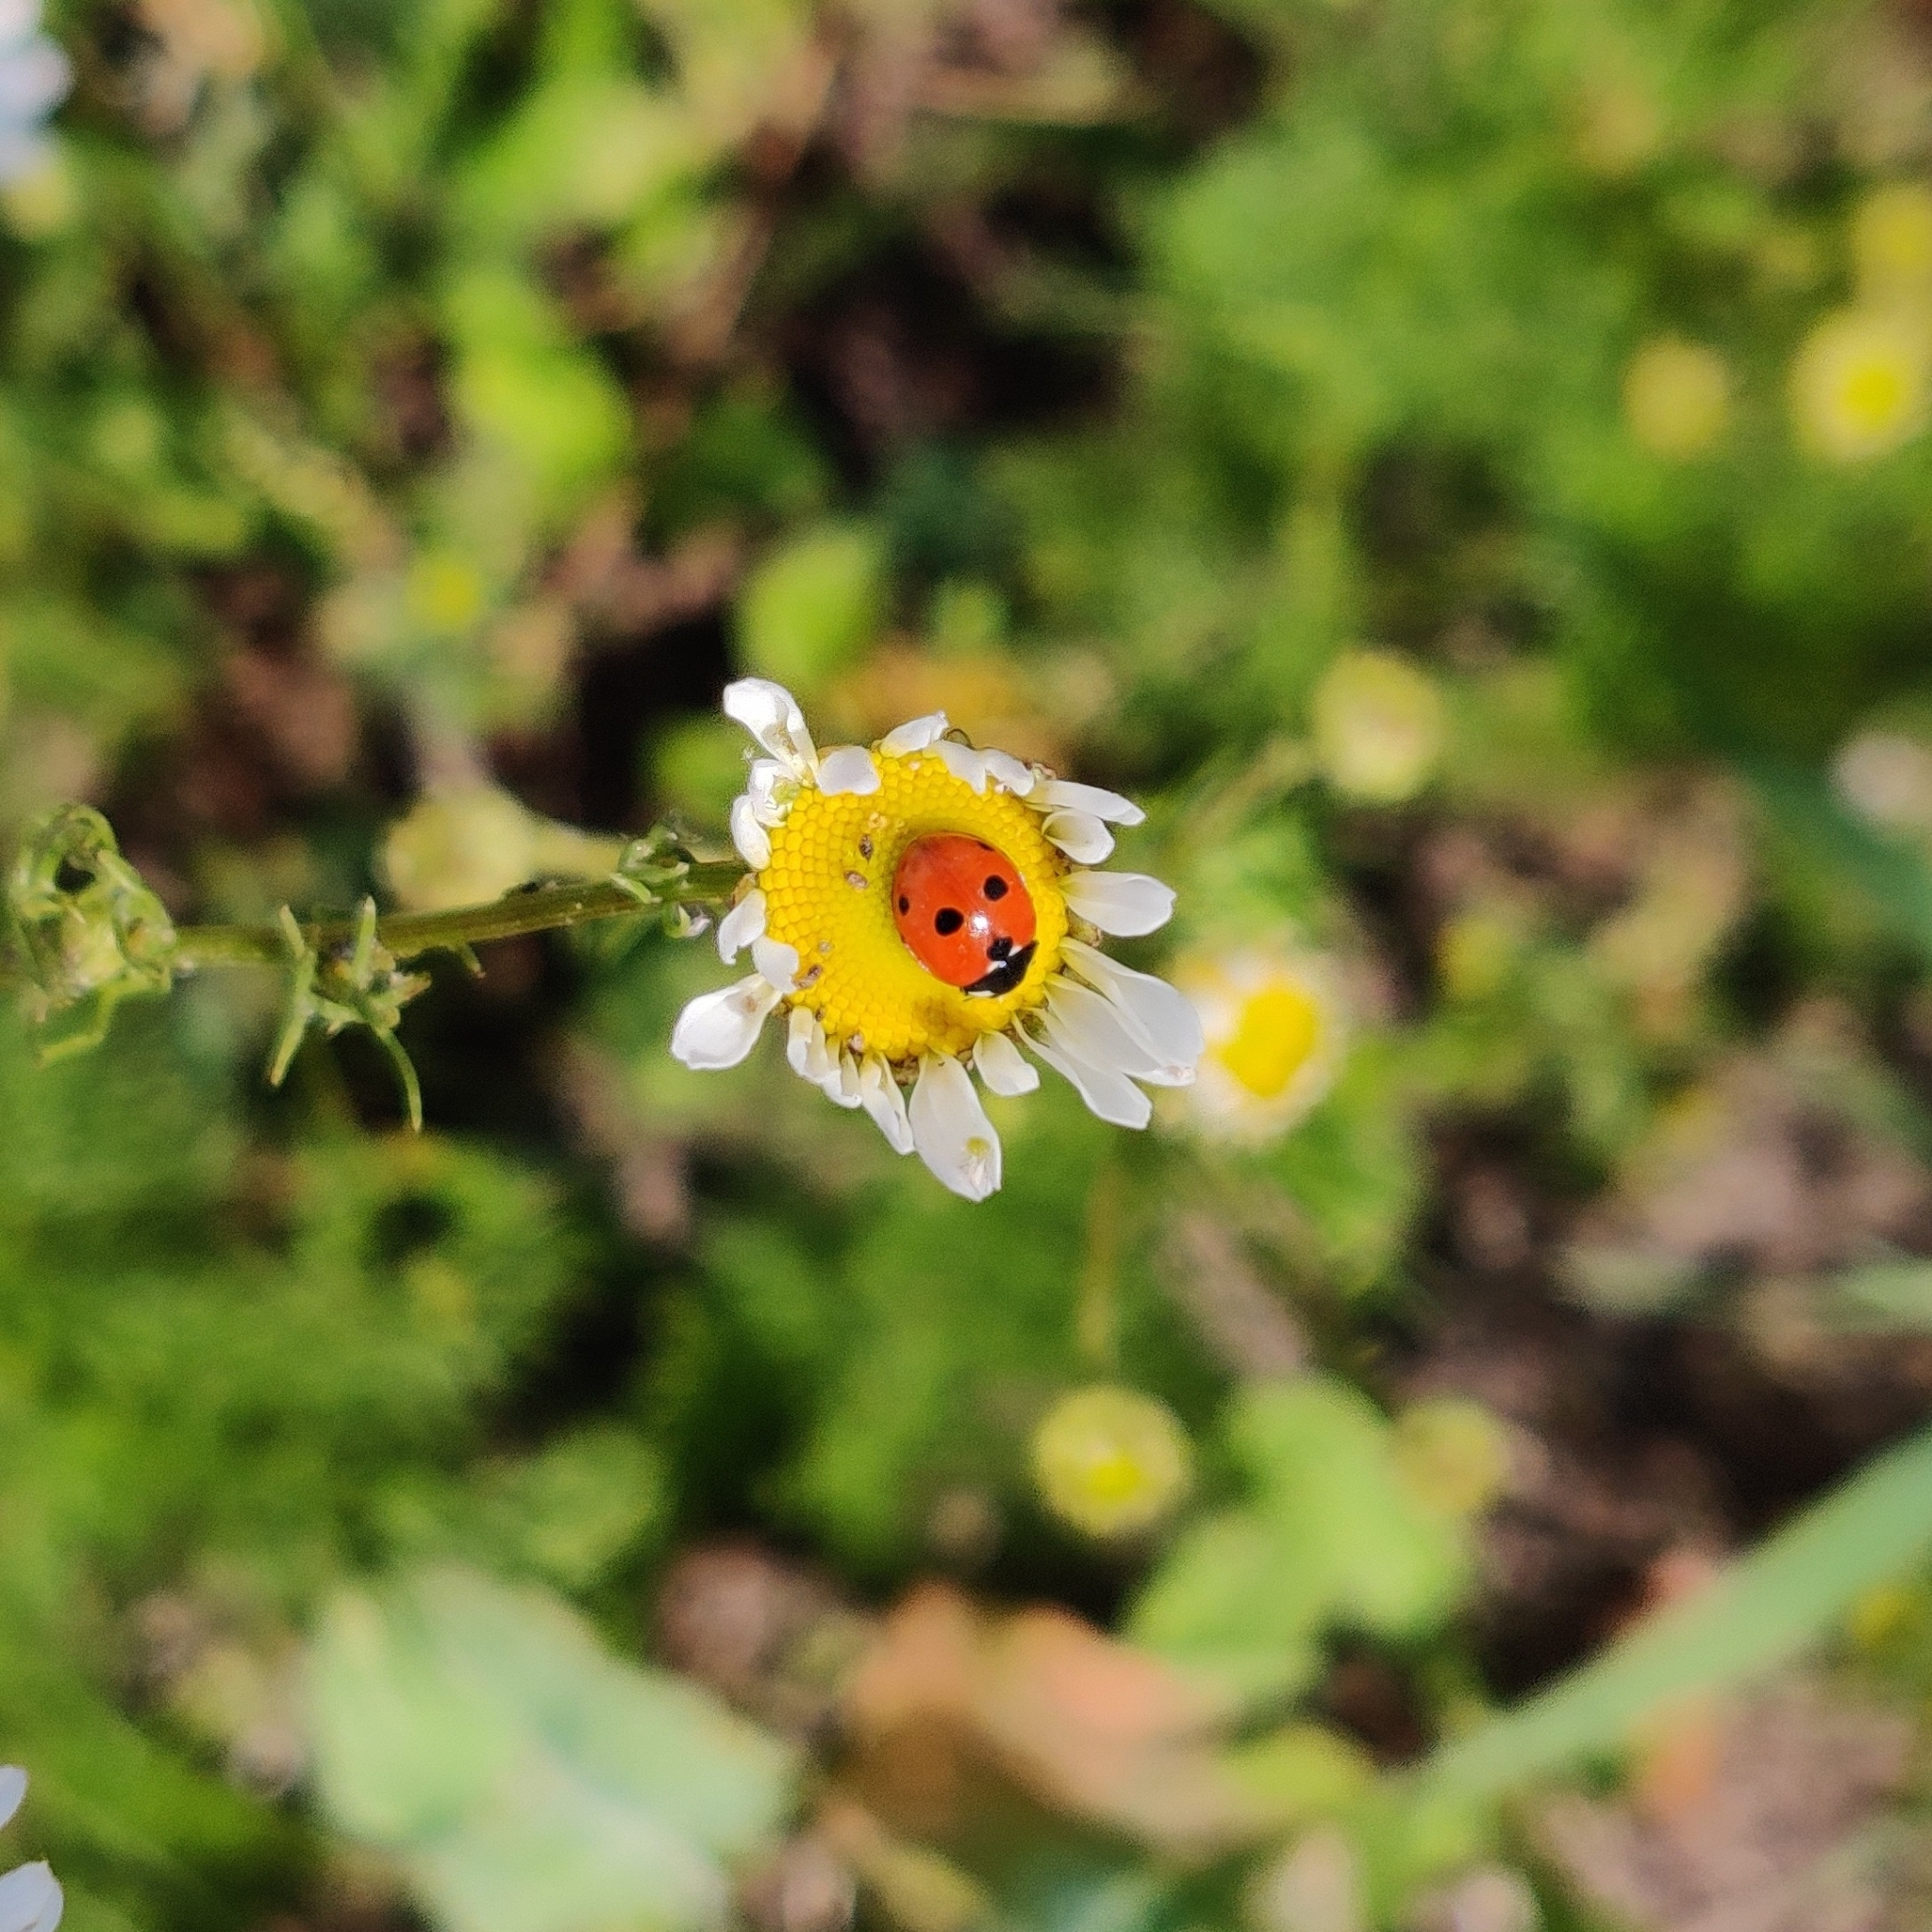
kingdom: Animalia
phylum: Arthropoda
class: Insecta
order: Coleoptera
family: Coccinellidae
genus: Coccinella
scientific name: Coccinella quinquepunctata
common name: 5-spot ladybird
